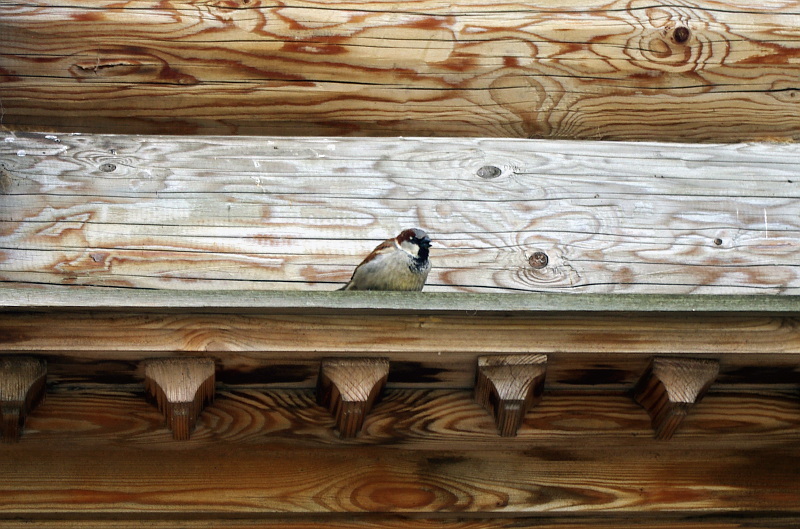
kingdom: Animalia
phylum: Chordata
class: Aves
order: Passeriformes
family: Passeridae
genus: Passer
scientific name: Passer domesticus
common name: House sparrow
